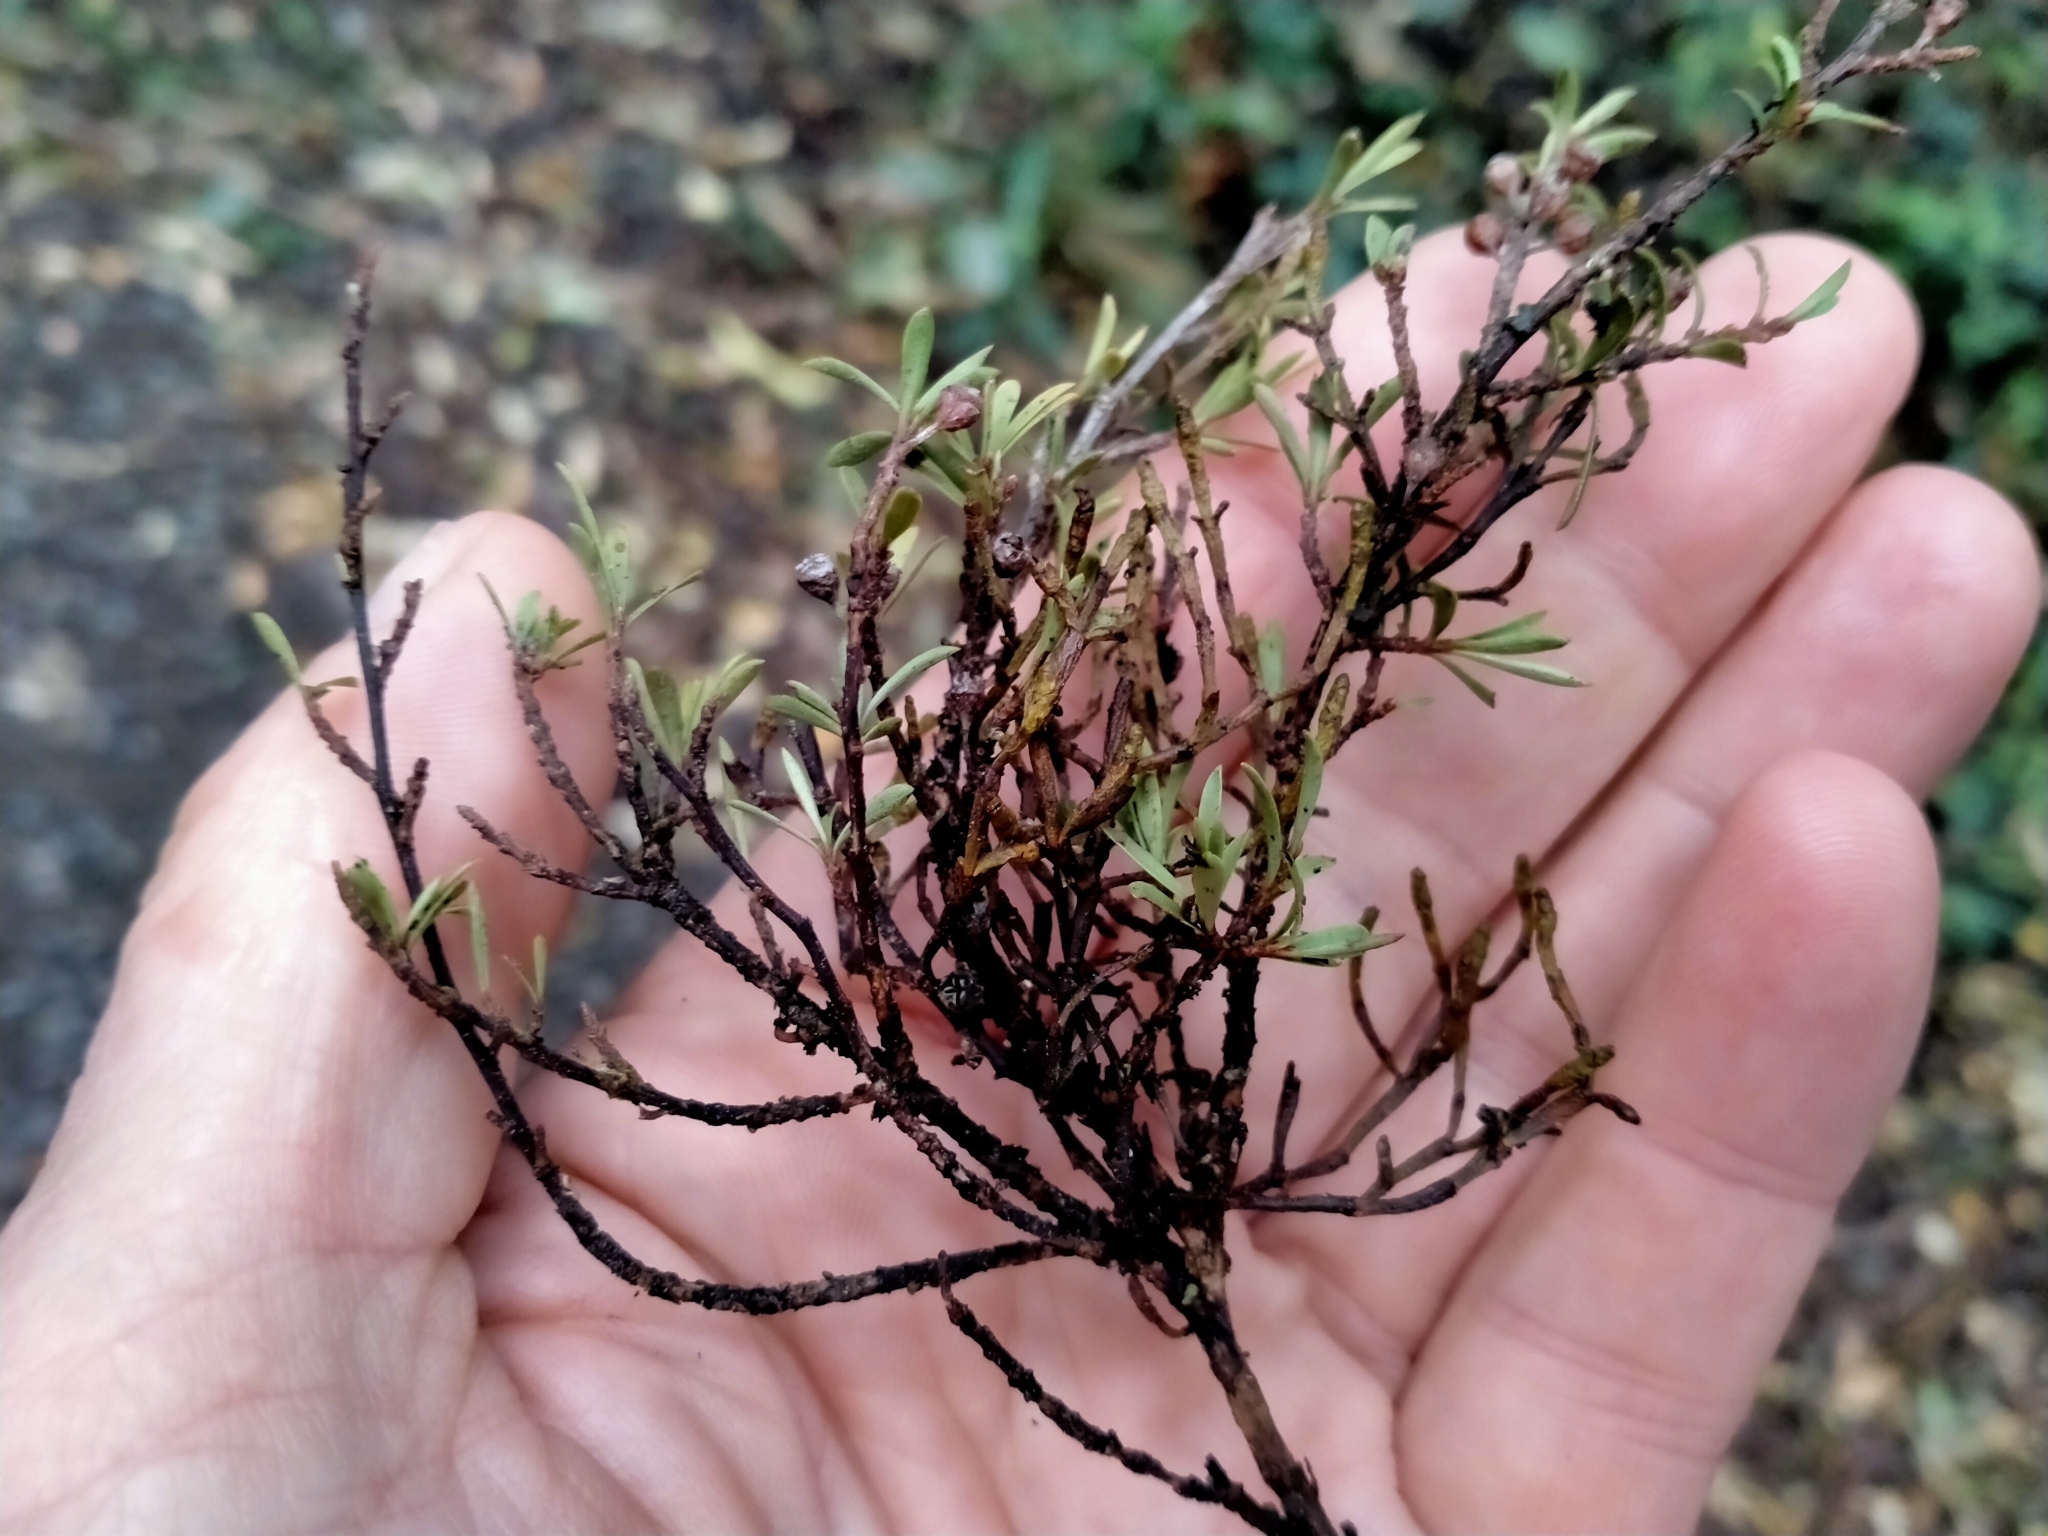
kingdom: Plantae
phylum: Tracheophyta
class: Magnoliopsida
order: Santalales
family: Viscaceae
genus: Korthalsella
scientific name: Korthalsella salicornioides
